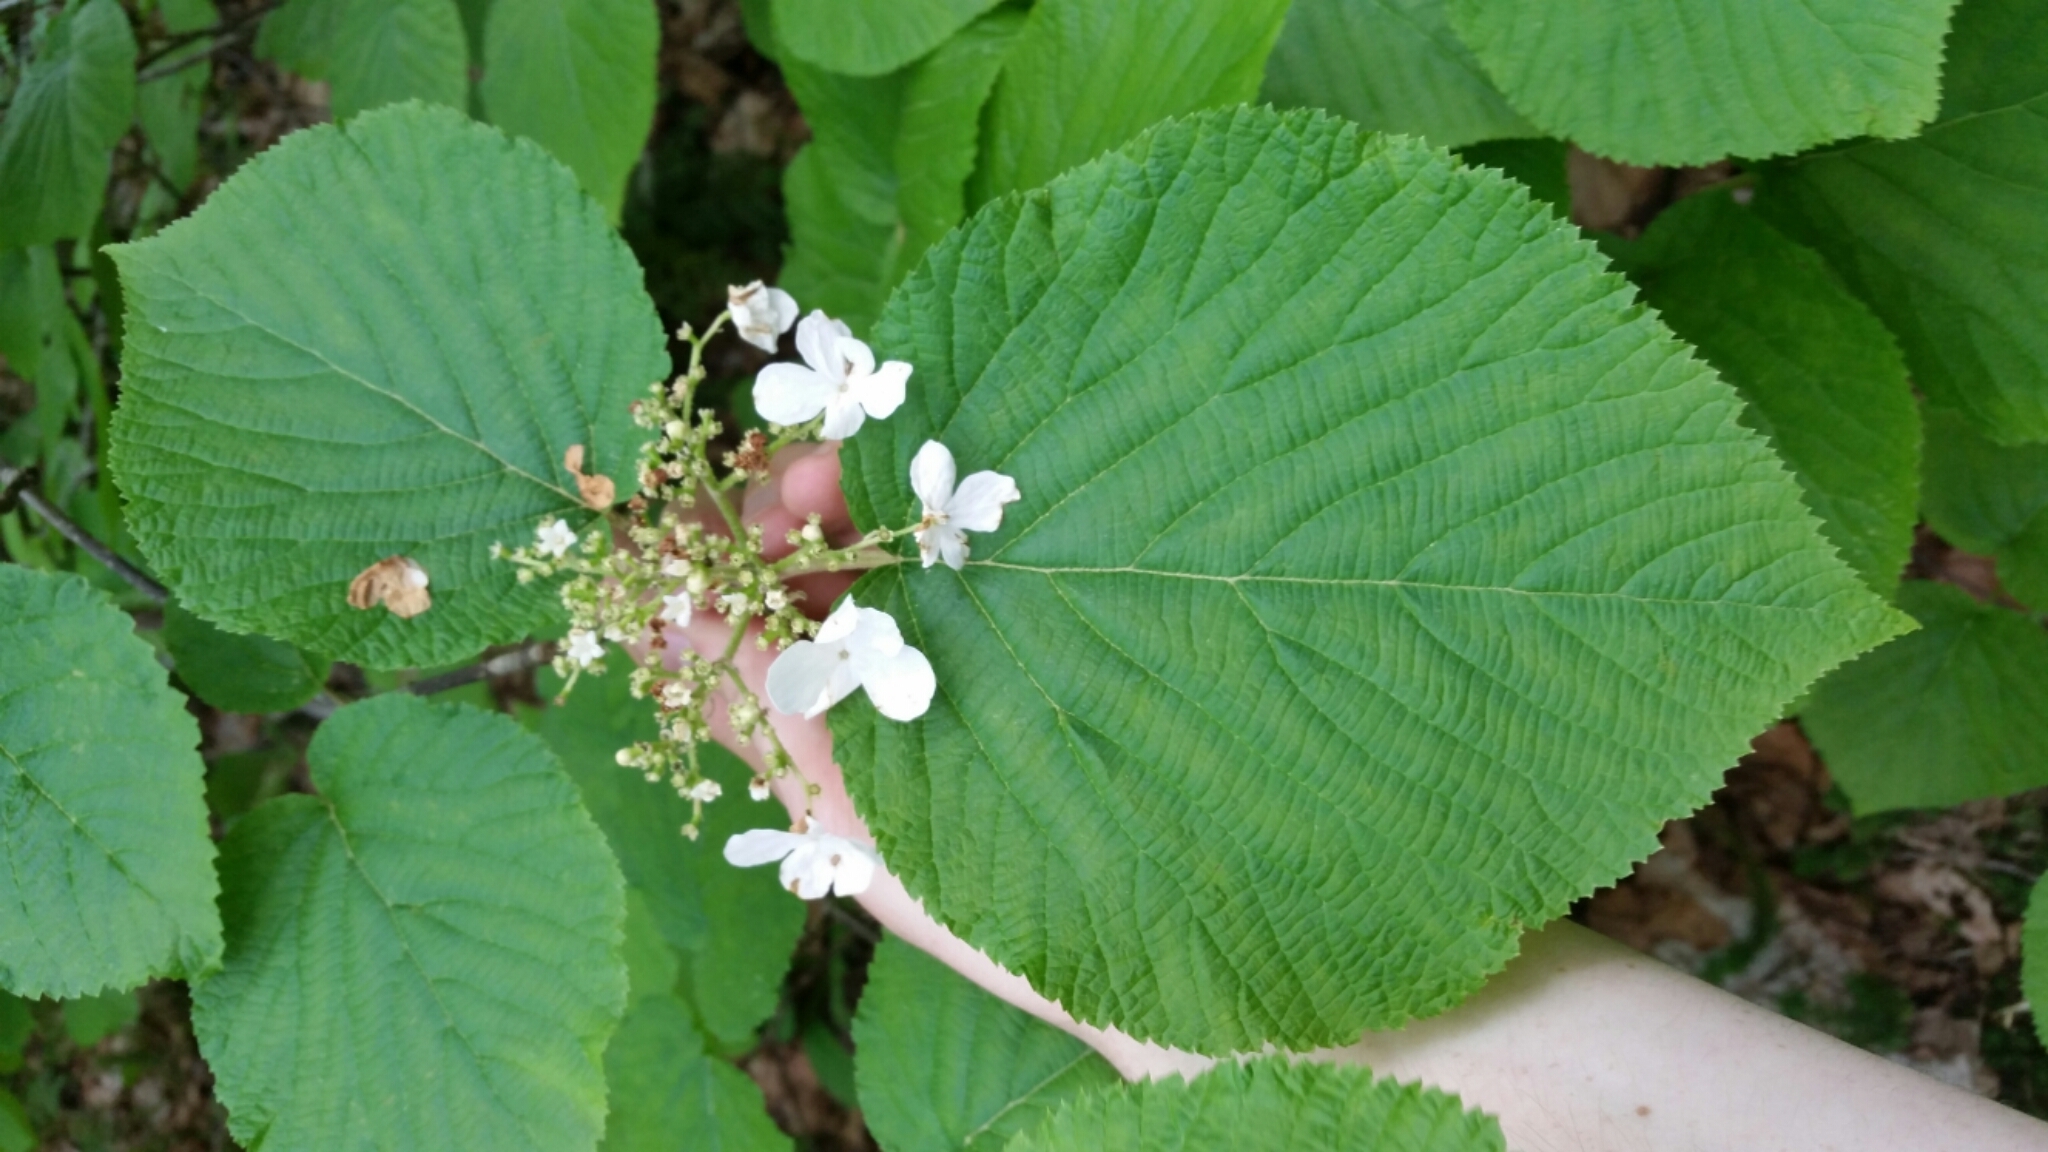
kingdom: Plantae
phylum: Tracheophyta
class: Magnoliopsida
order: Dipsacales
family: Viburnaceae
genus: Viburnum
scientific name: Viburnum lantanoides
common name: Hobblebush
